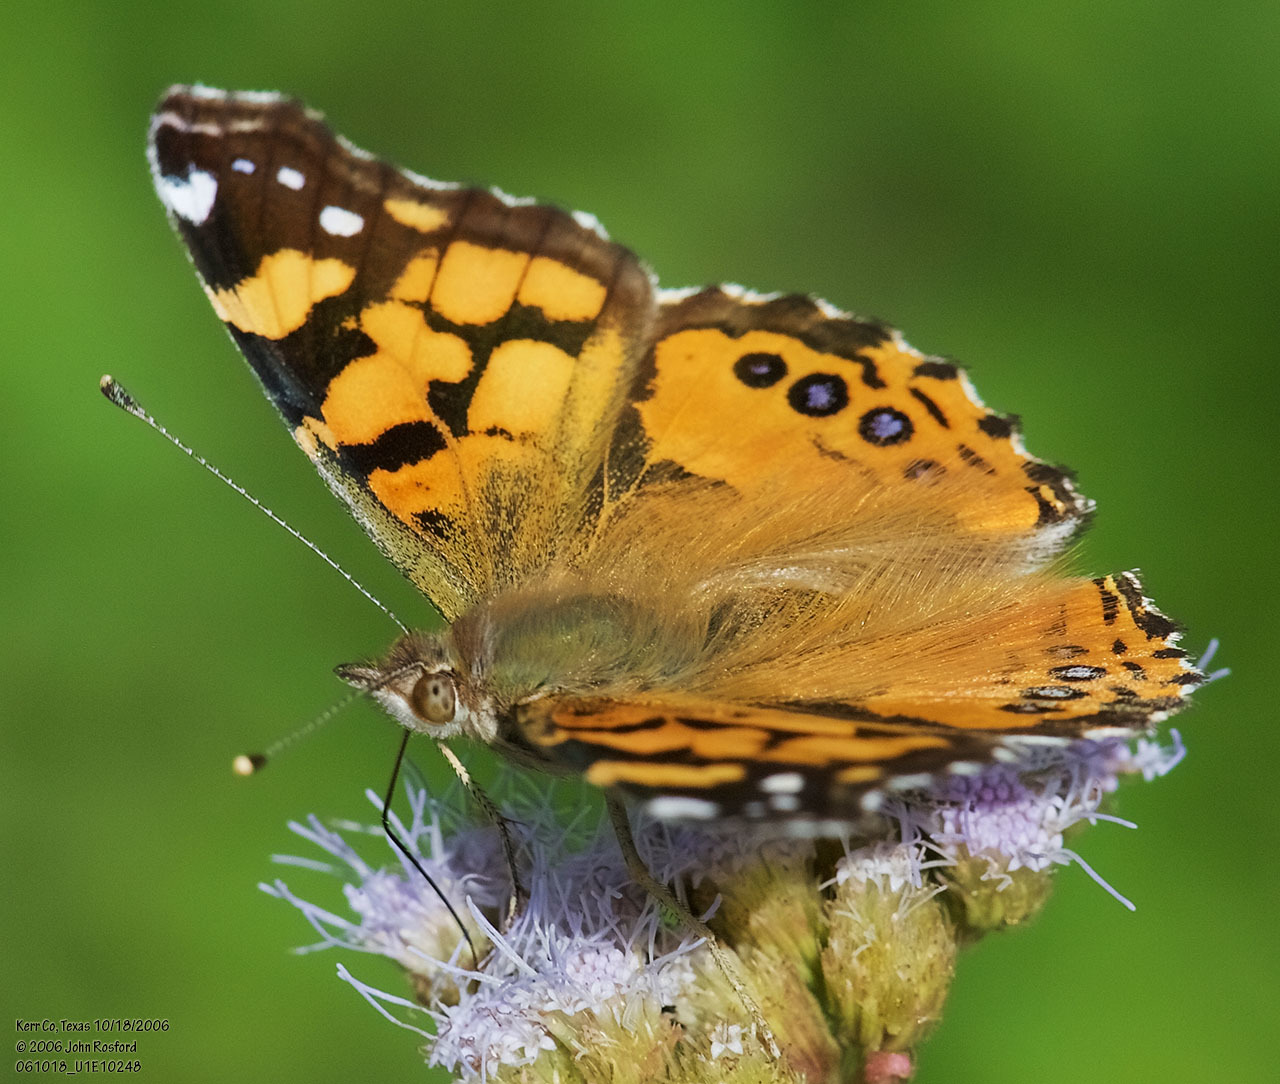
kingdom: Animalia
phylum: Arthropoda
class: Insecta
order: Lepidoptera
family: Nymphalidae
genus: Vanessa
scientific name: Vanessa annabella
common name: West coast lady
